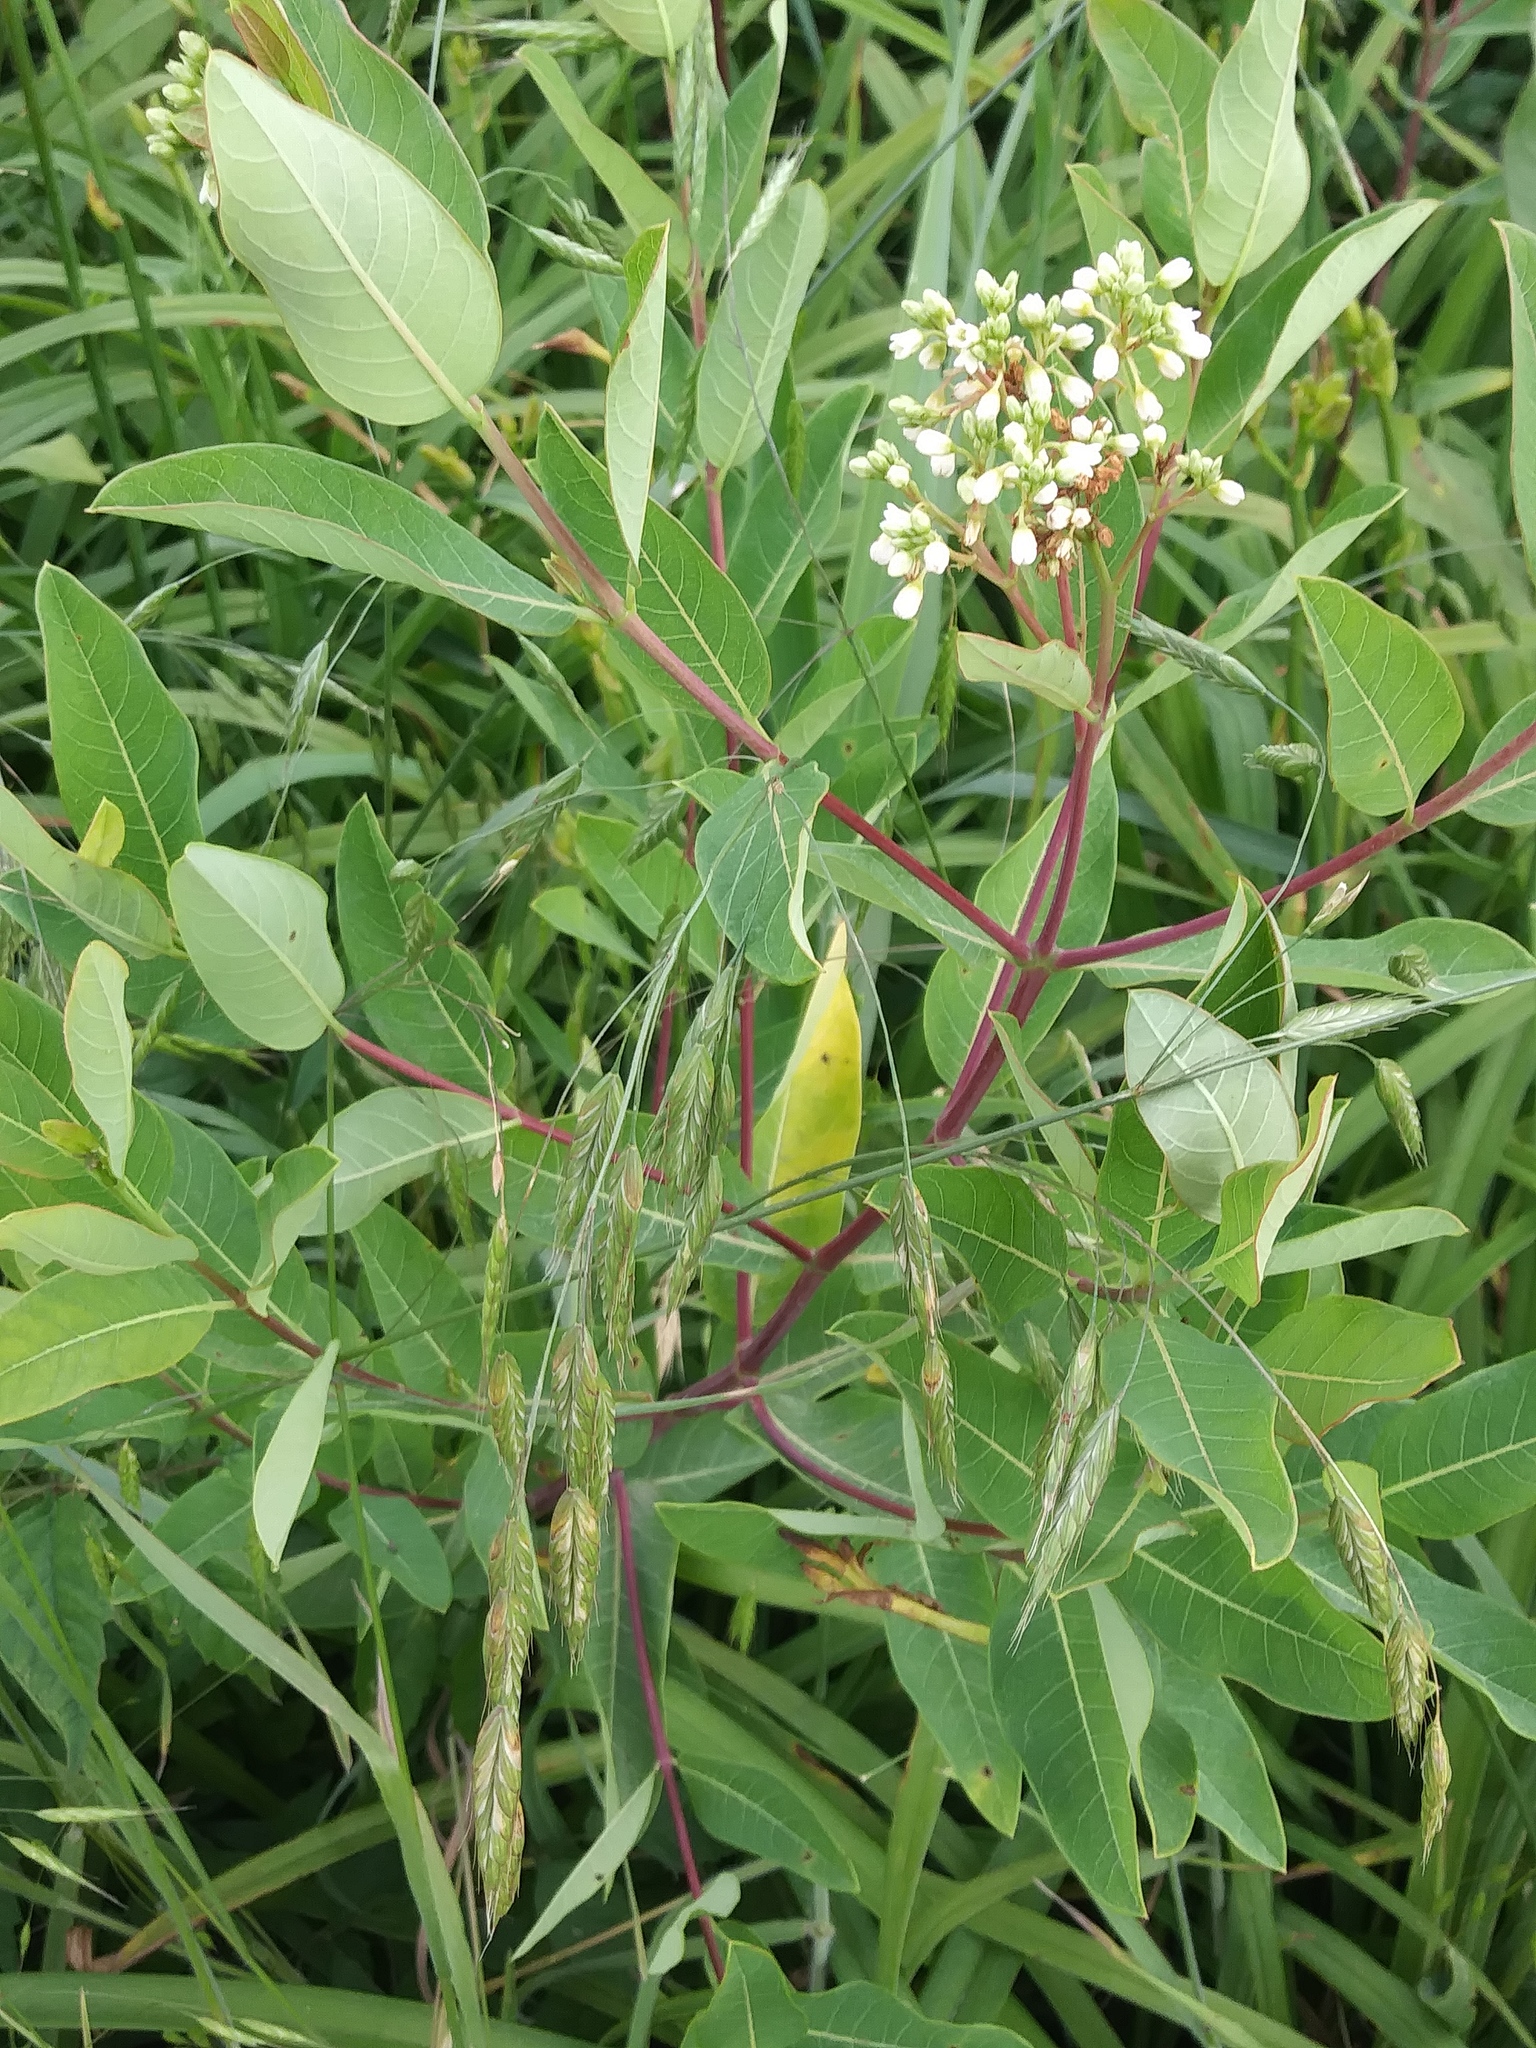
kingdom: Plantae
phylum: Tracheophyta
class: Magnoliopsida
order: Gentianales
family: Apocynaceae
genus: Apocynum
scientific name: Apocynum cannabinum
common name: Hemp dogbane
